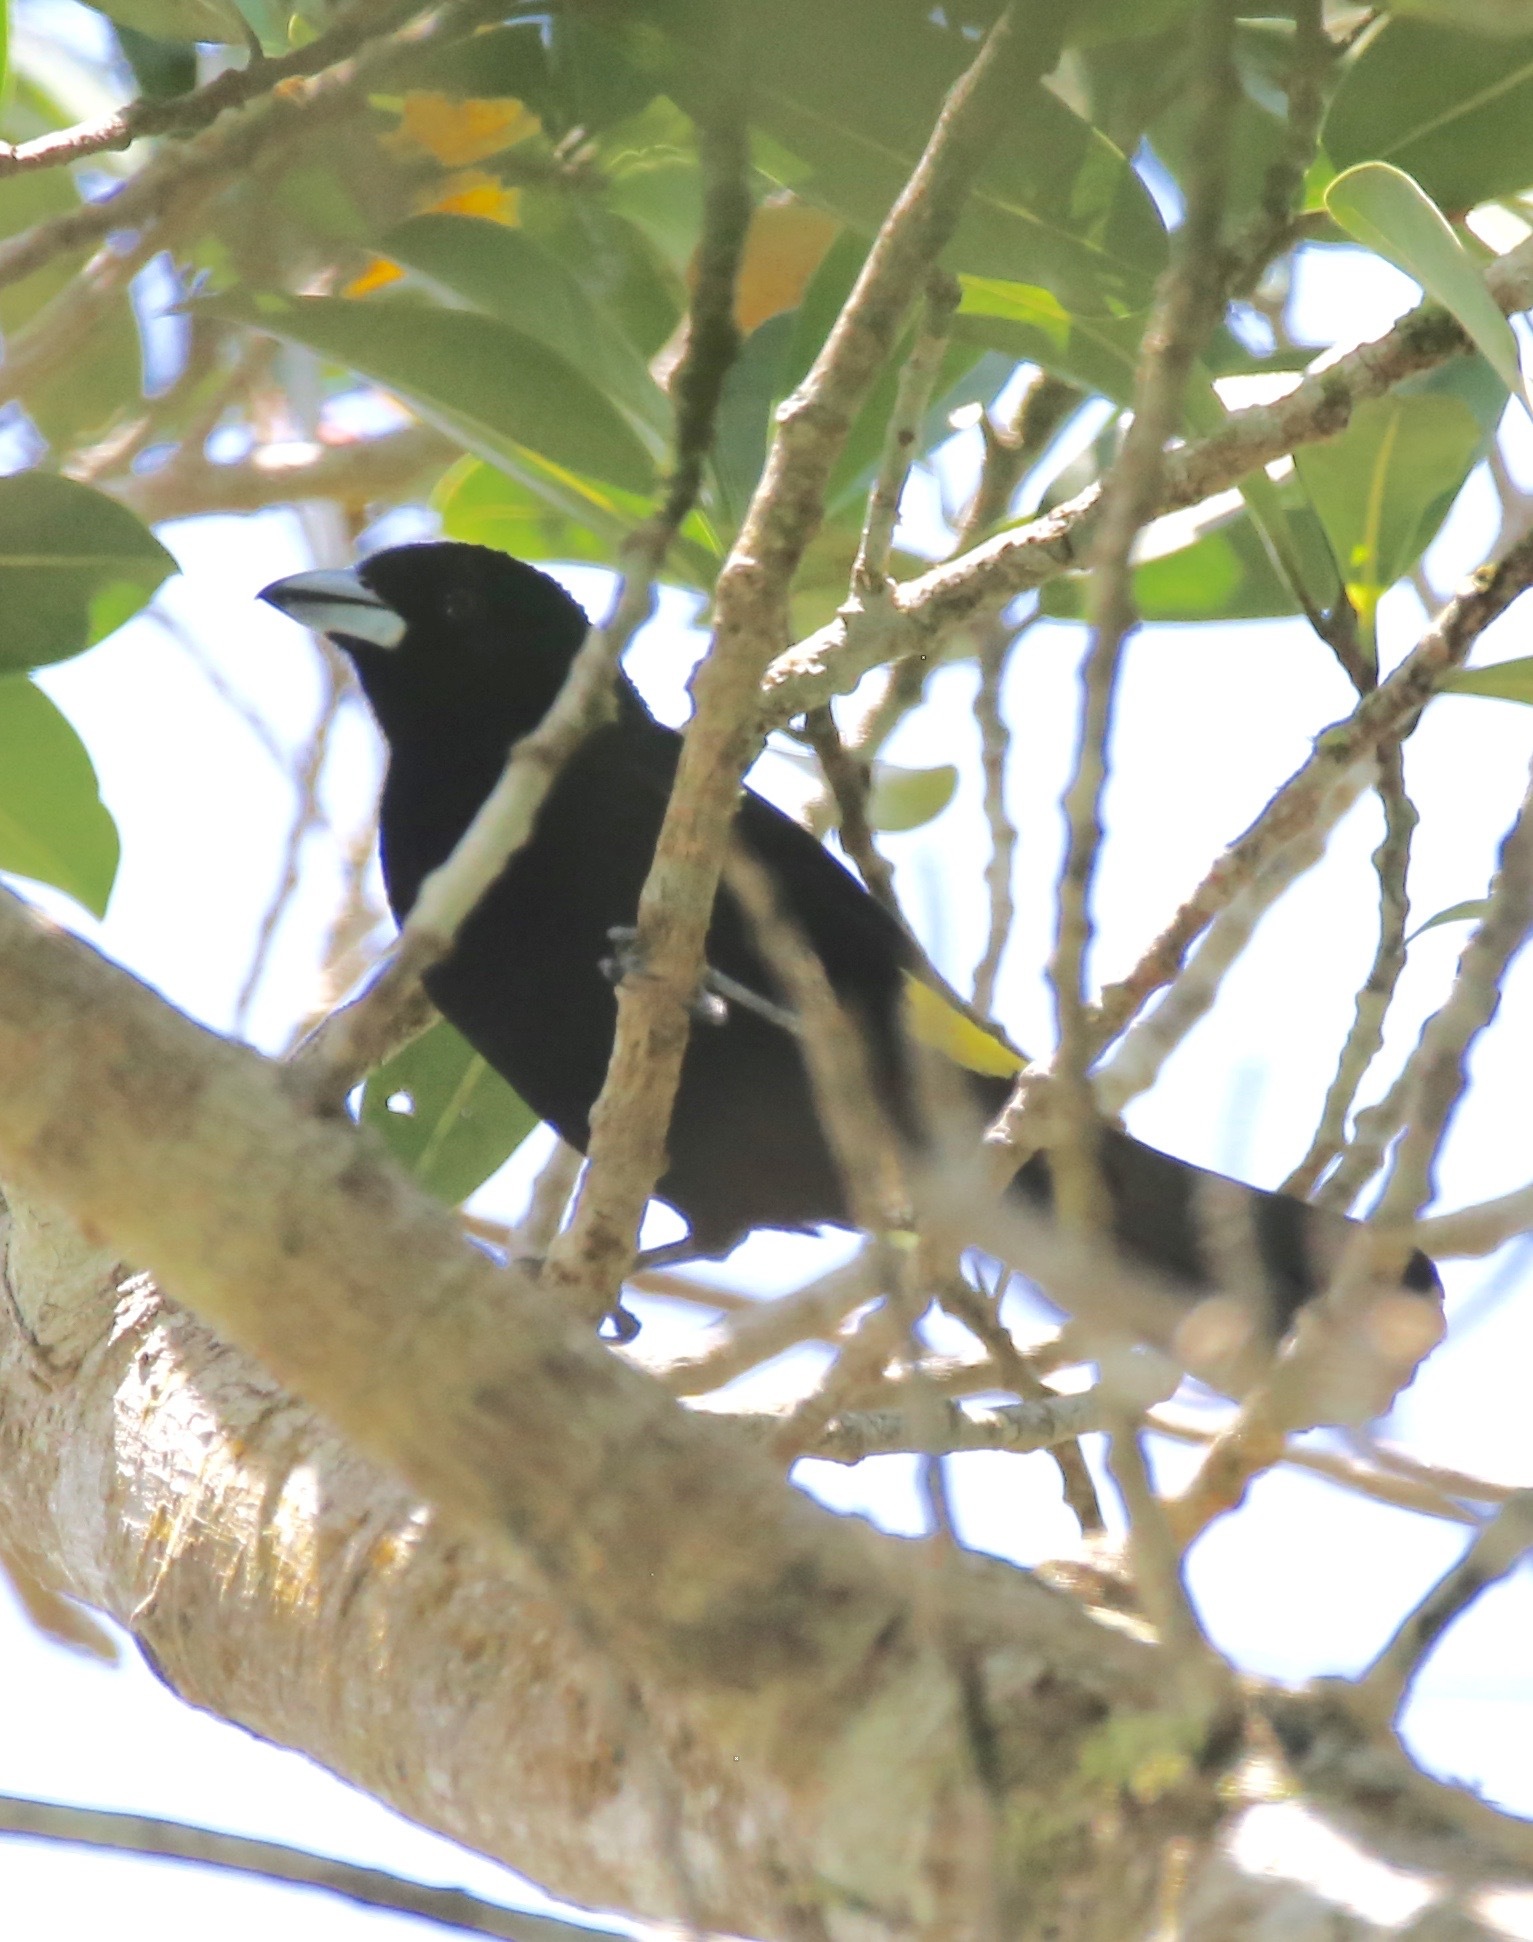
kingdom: Animalia
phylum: Chordata
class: Aves
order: Passeriformes
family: Thraupidae
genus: Ramphocelus
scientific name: Ramphocelus flammigerus
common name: Flame-rumped tanager
